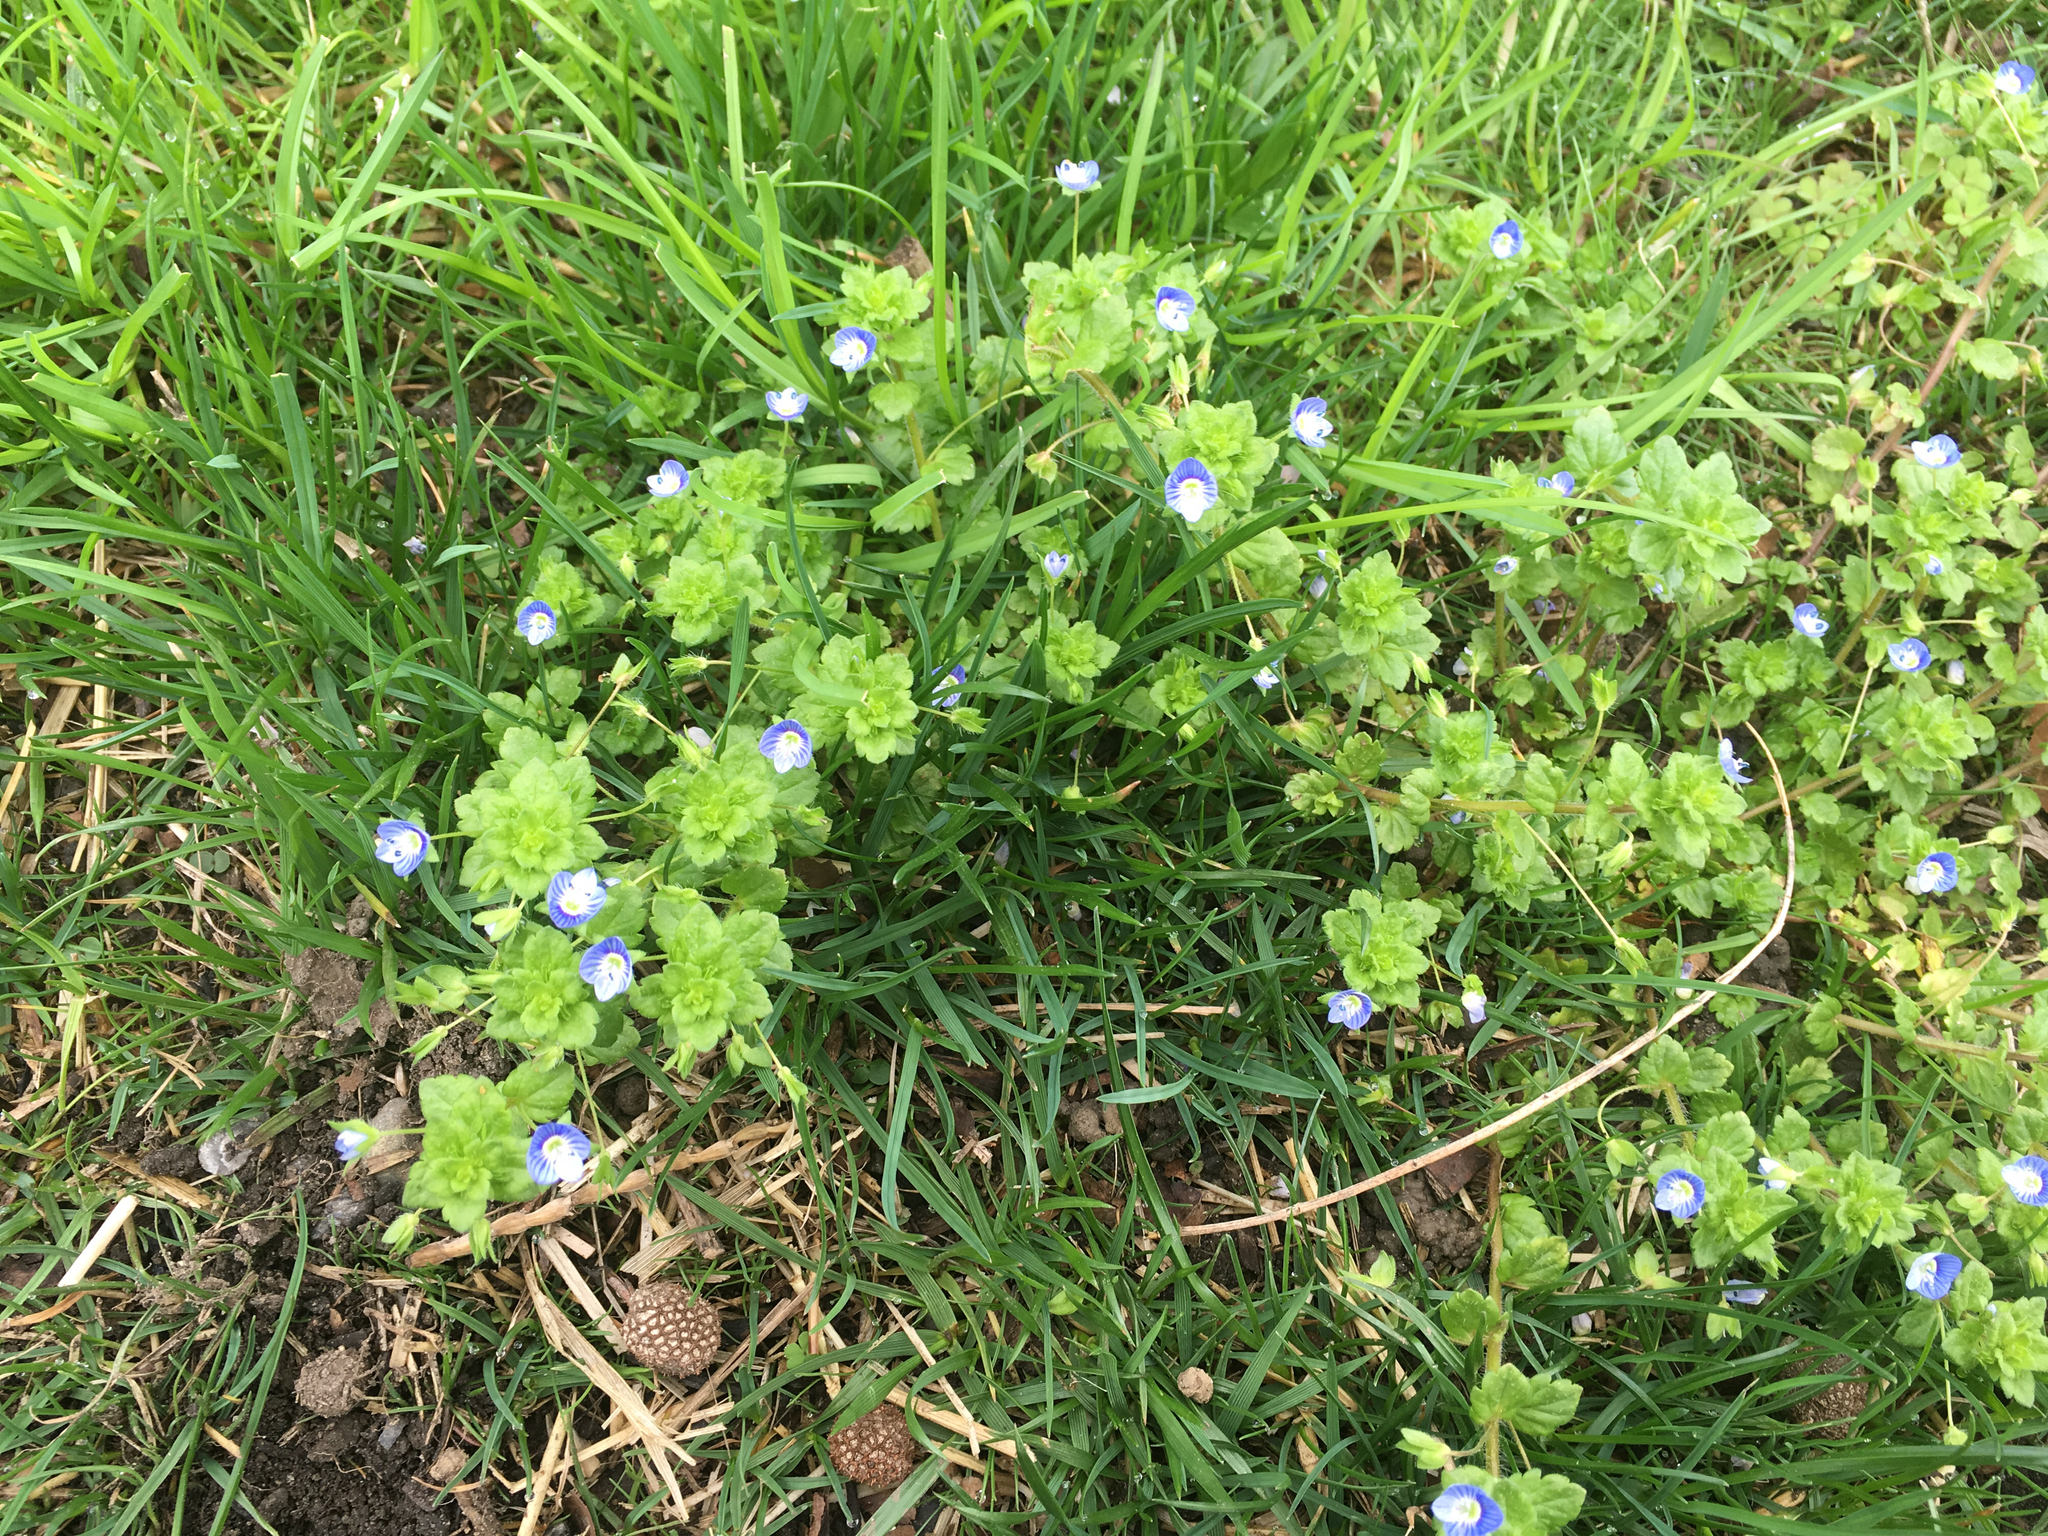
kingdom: Plantae
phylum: Tracheophyta
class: Magnoliopsida
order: Lamiales
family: Plantaginaceae
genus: Veronica
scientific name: Veronica persica
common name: Common field-speedwell
